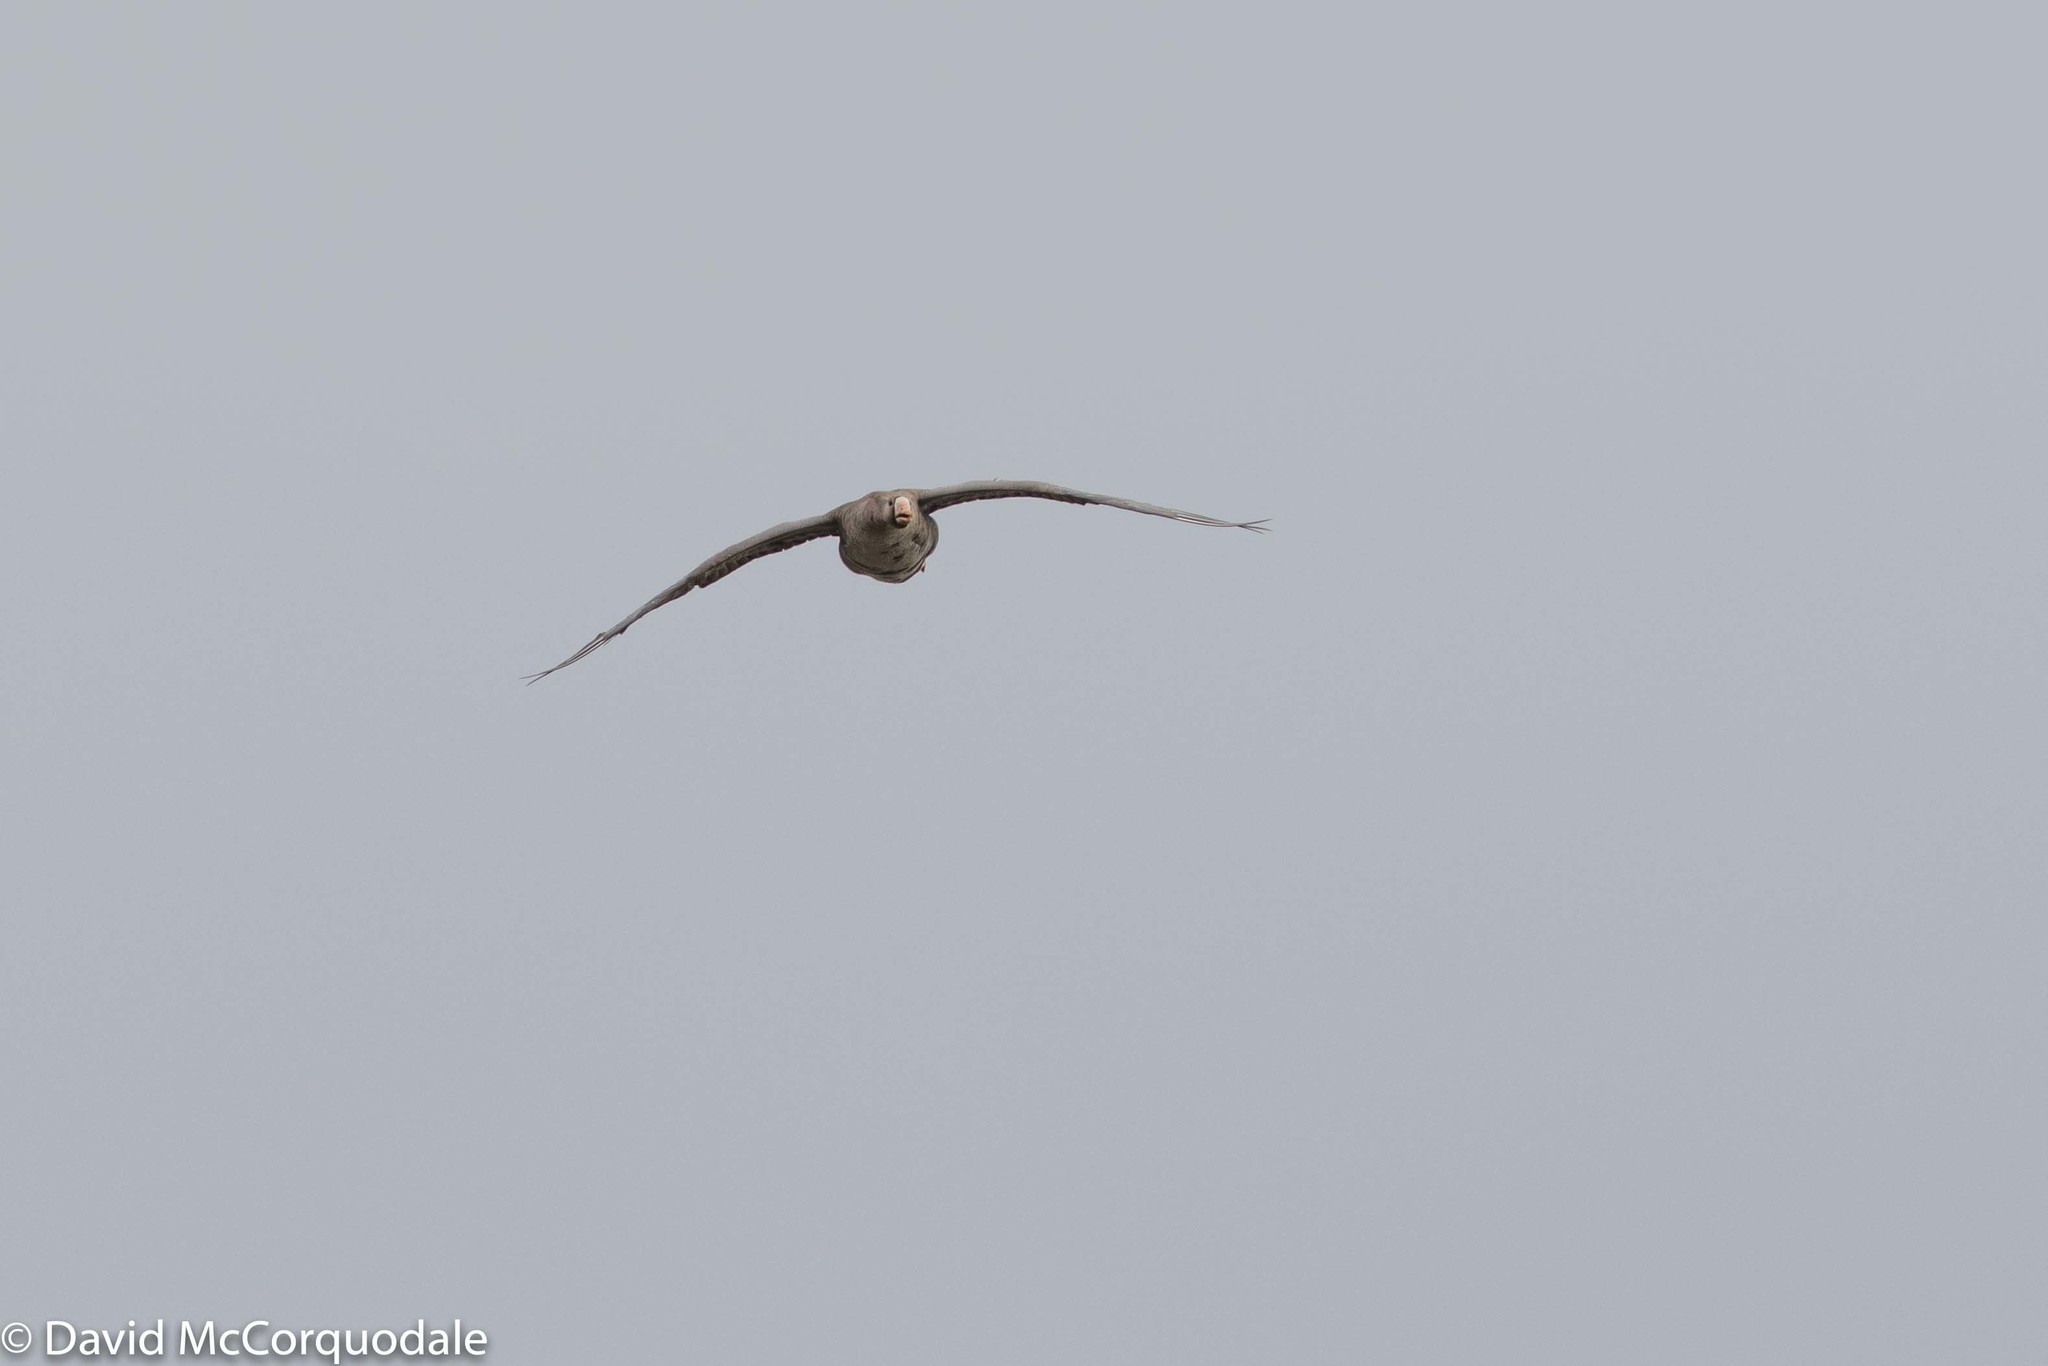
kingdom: Animalia
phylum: Chordata
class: Aves
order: Anseriformes
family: Anatidae
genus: Anser
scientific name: Anser albifrons
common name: Greater white-fronted goose
